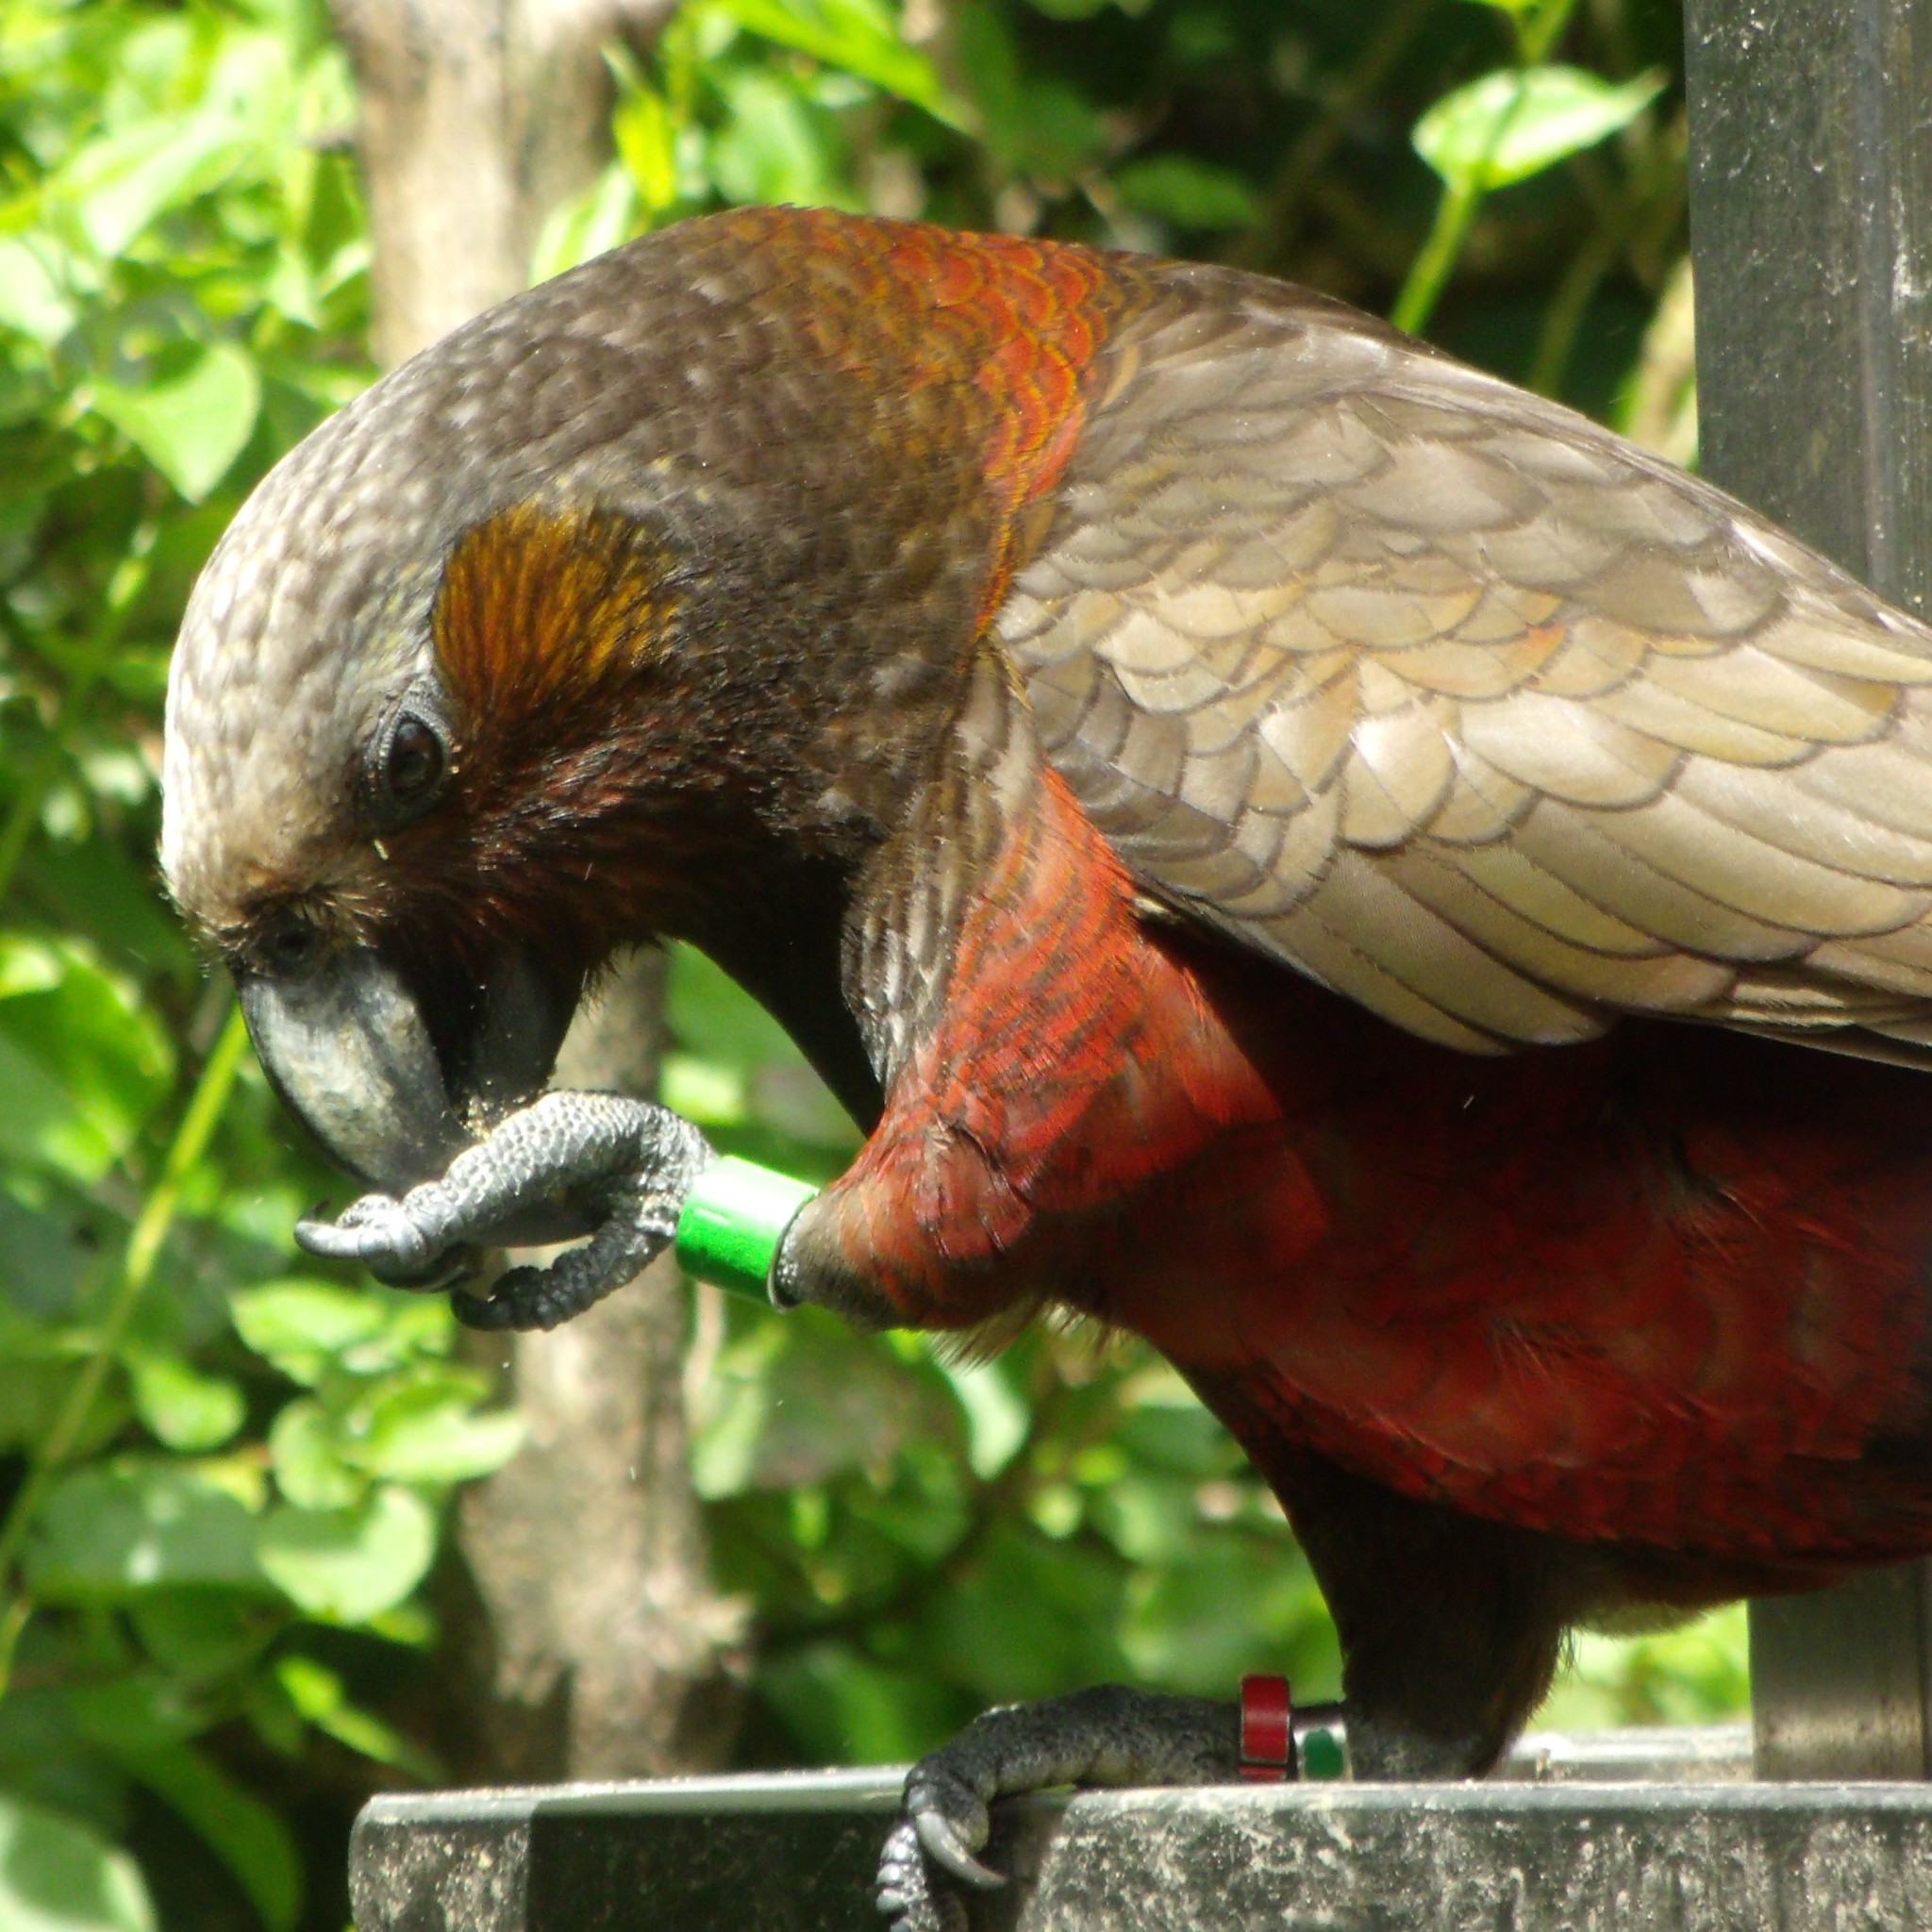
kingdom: Animalia
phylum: Chordata
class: Aves
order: Psittaciformes
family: Psittacidae
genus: Nestor
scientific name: Nestor meridionalis
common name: New zealand kaka
